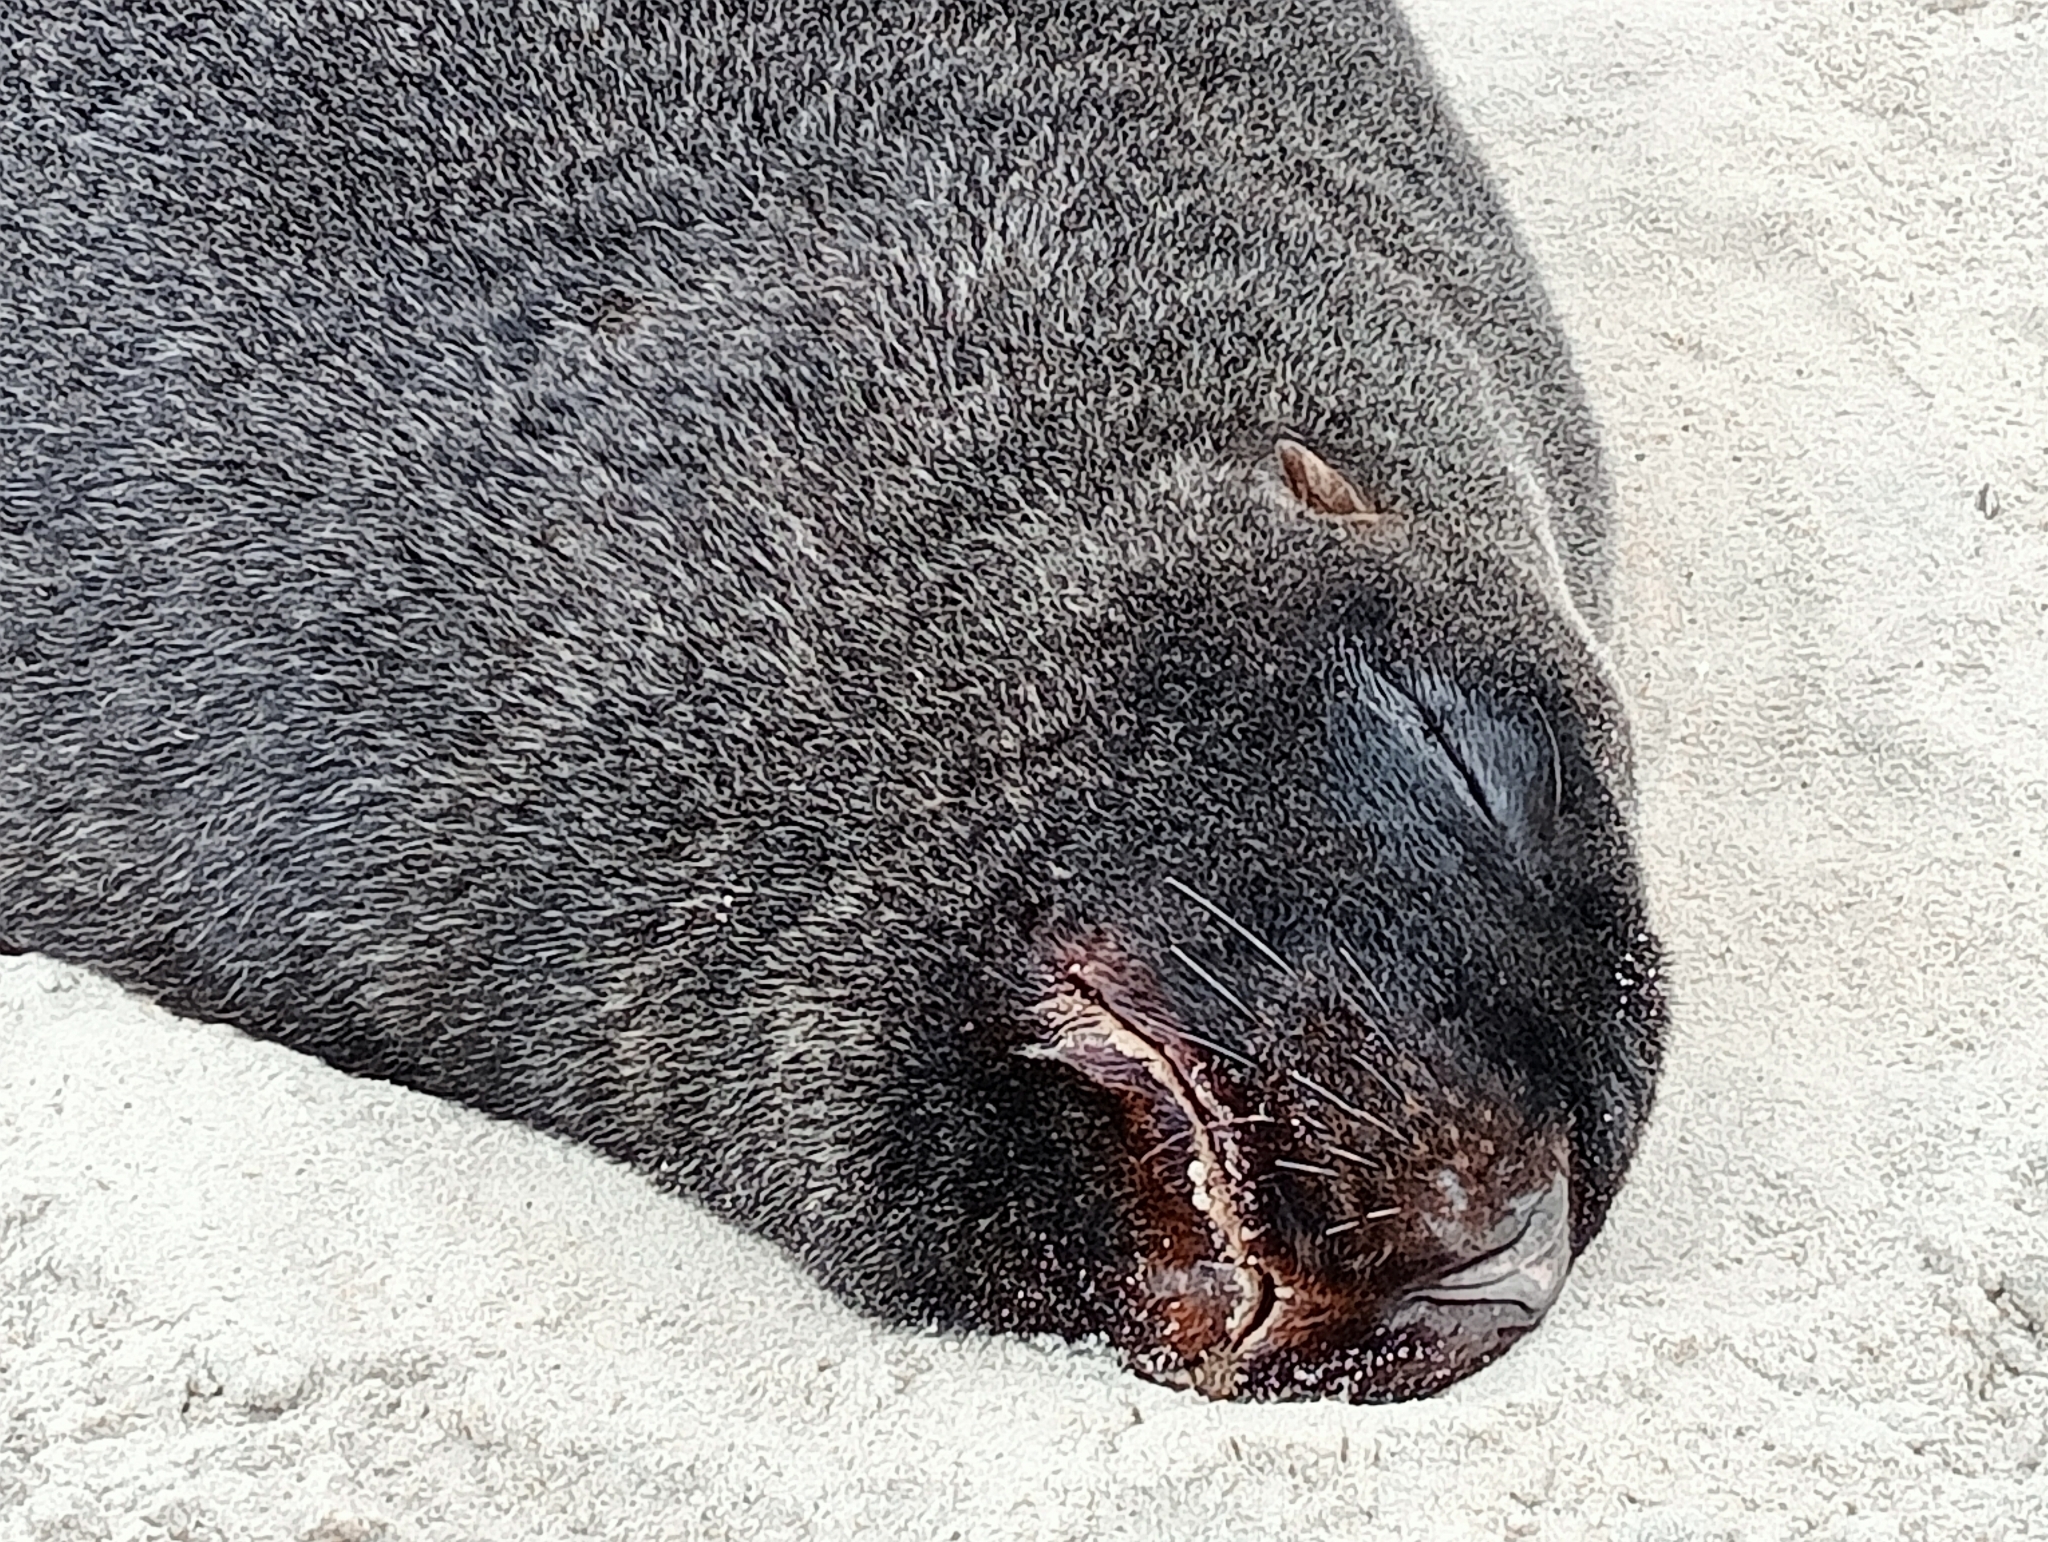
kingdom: Animalia
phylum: Chordata
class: Mammalia
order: Carnivora
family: Otariidae
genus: Phocarctos
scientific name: Phocarctos hookeri
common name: New zealand sea lion
